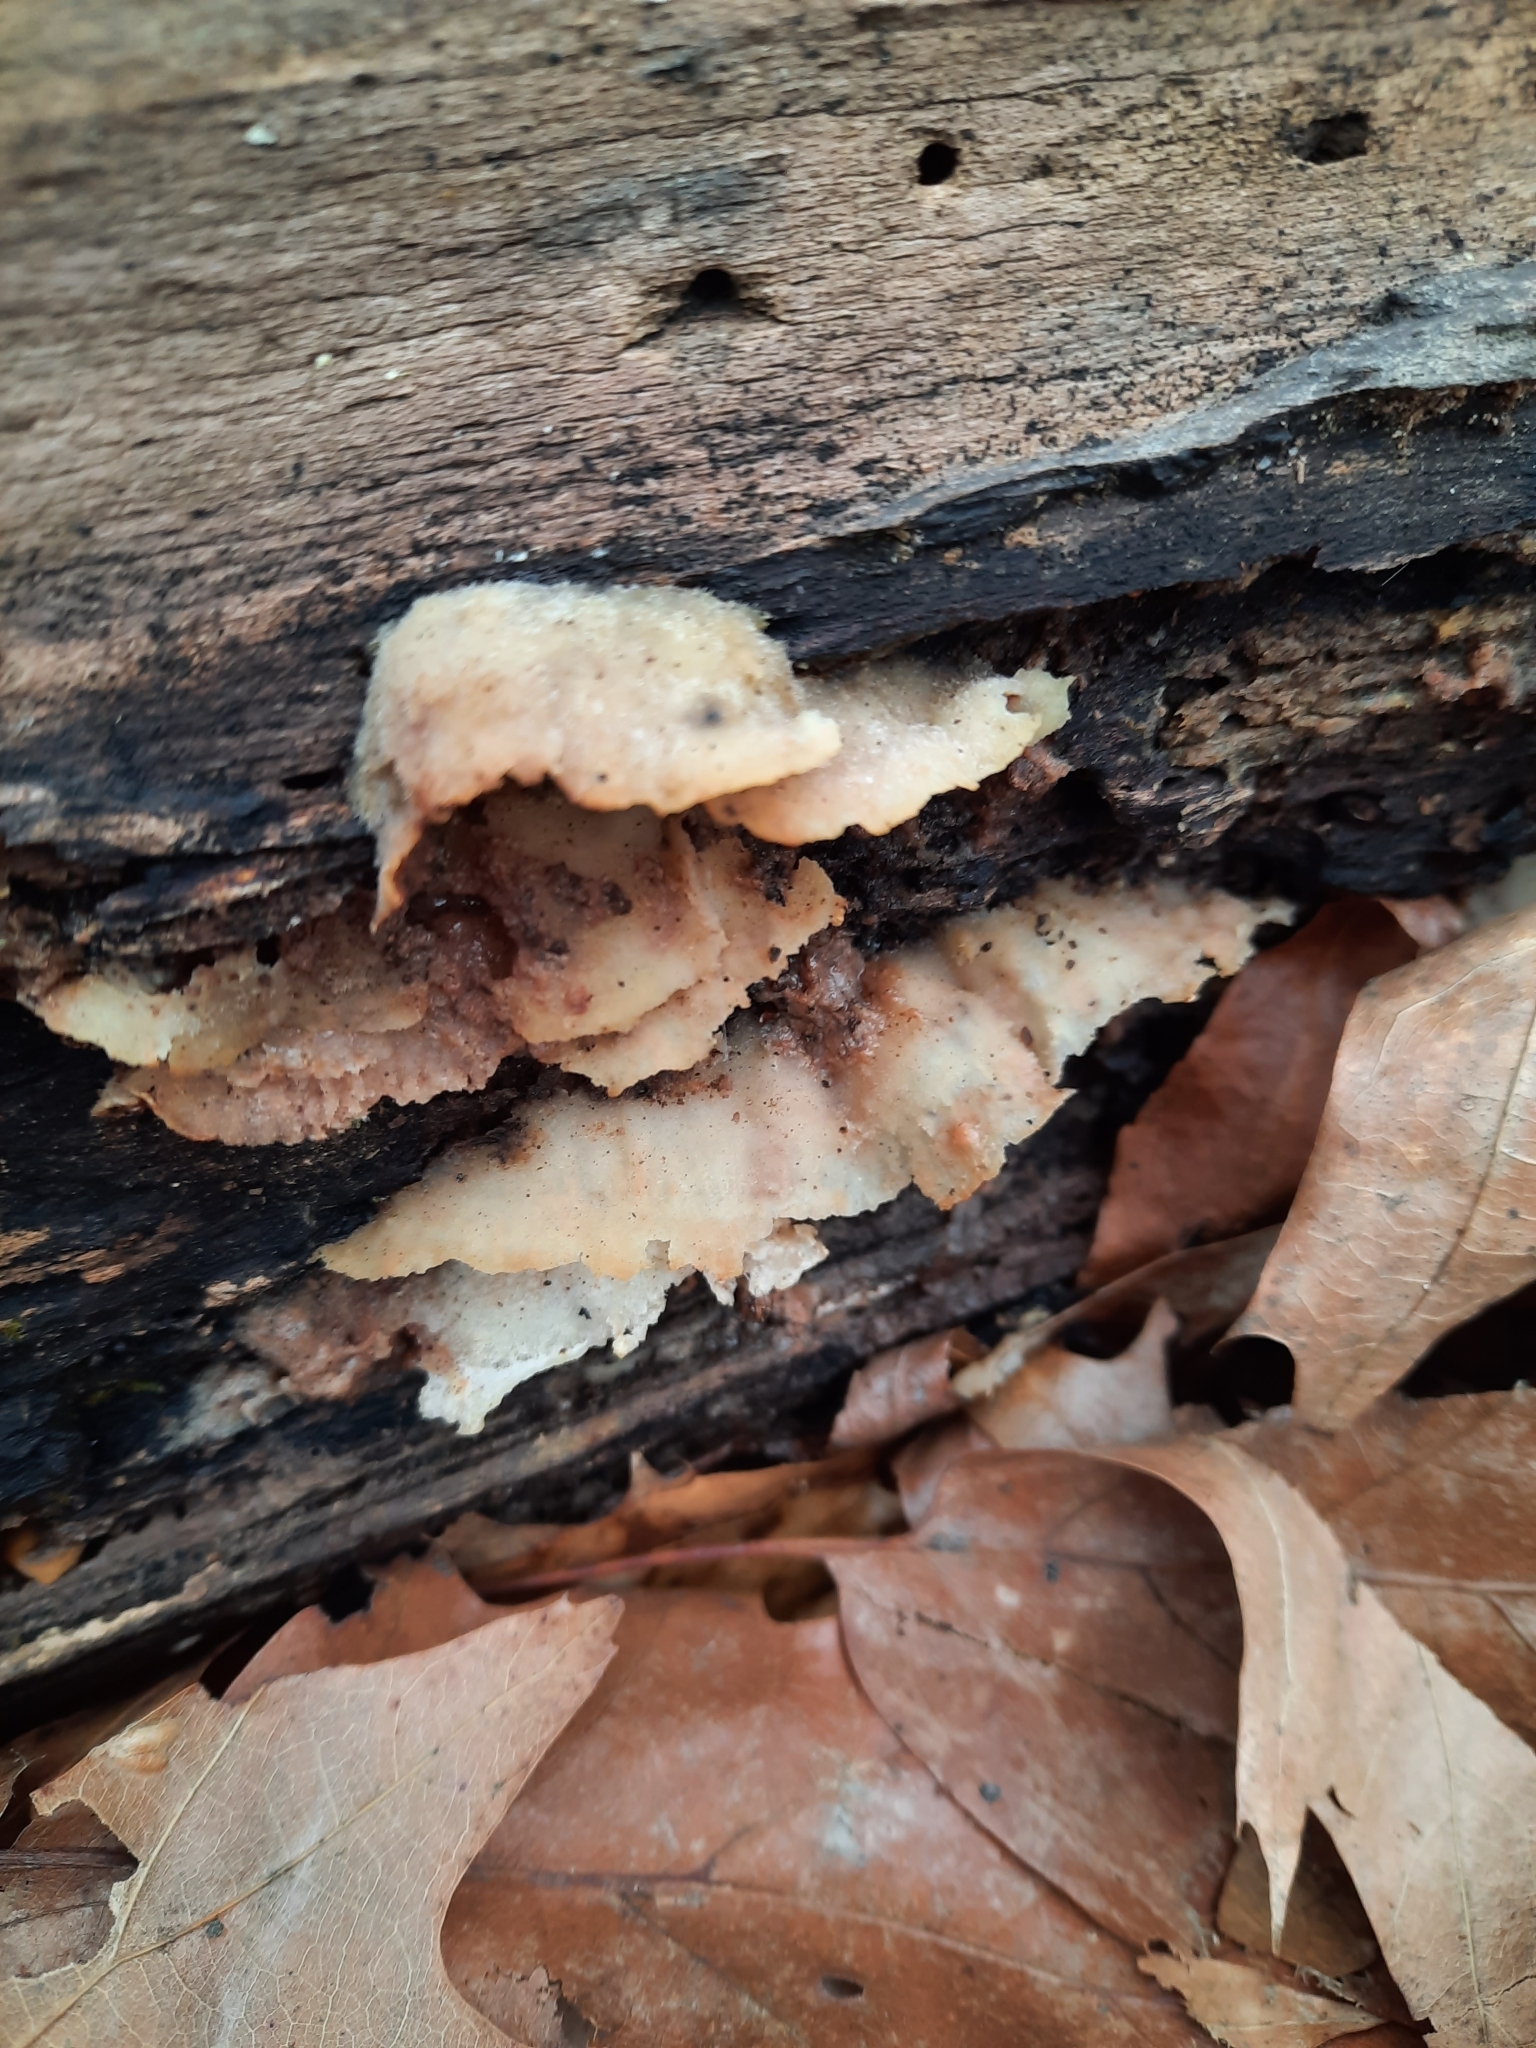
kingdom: Fungi
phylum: Basidiomycota
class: Agaricomycetes
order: Polyporales
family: Meruliaceae
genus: Phlebia
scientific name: Phlebia tremellosa
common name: Jelly rot
